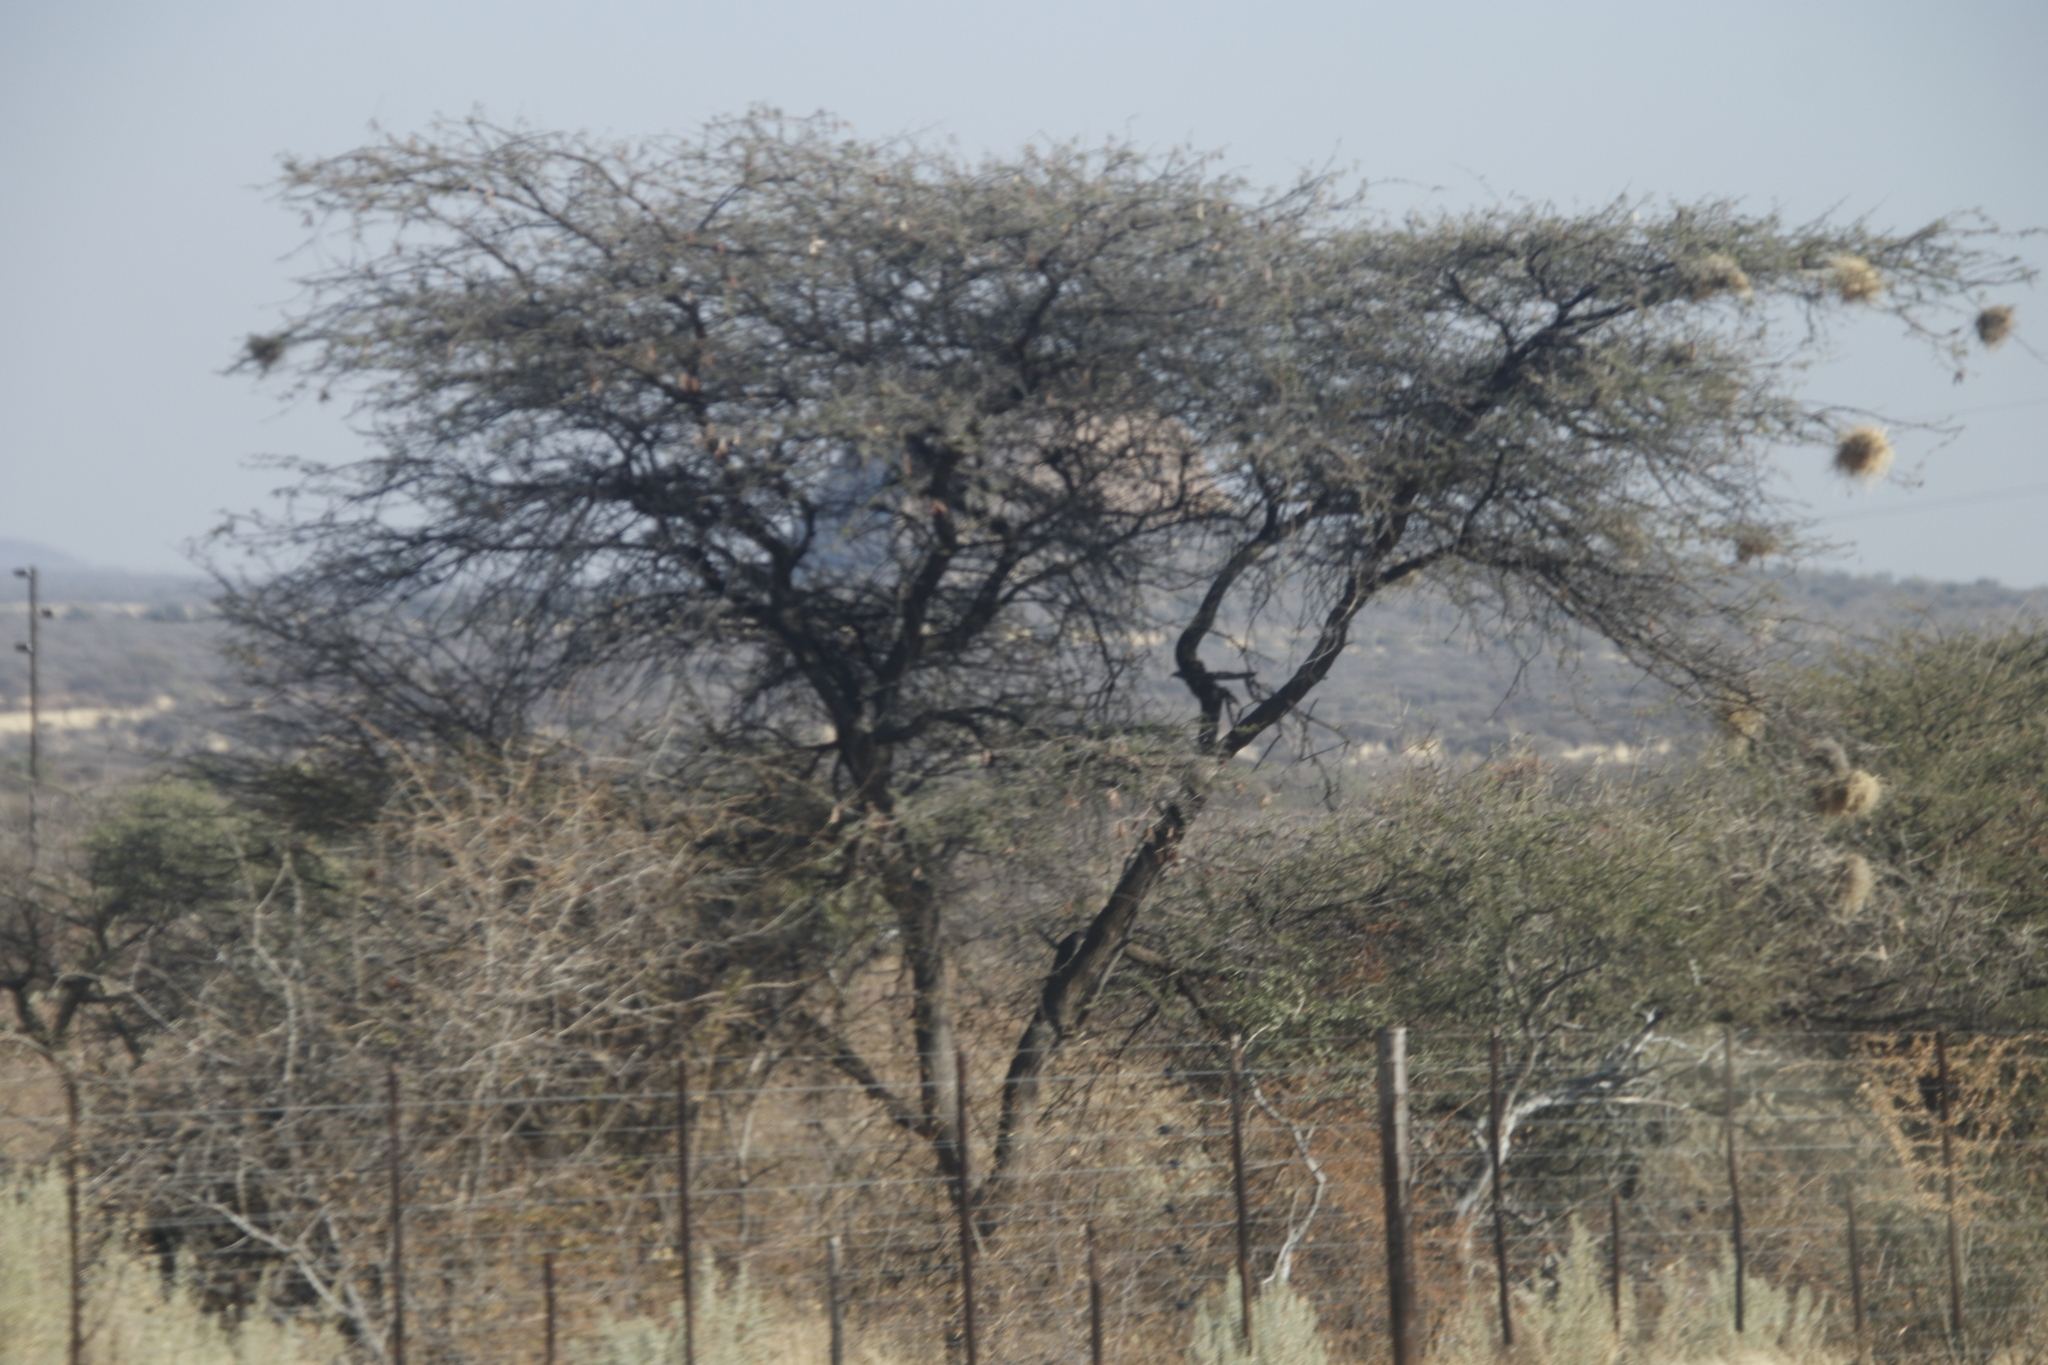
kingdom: Animalia
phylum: Chordata
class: Aves
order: Passeriformes
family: Passeridae
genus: Plocepasser
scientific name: Plocepasser mahali
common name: White-browed sparrow-weaver
